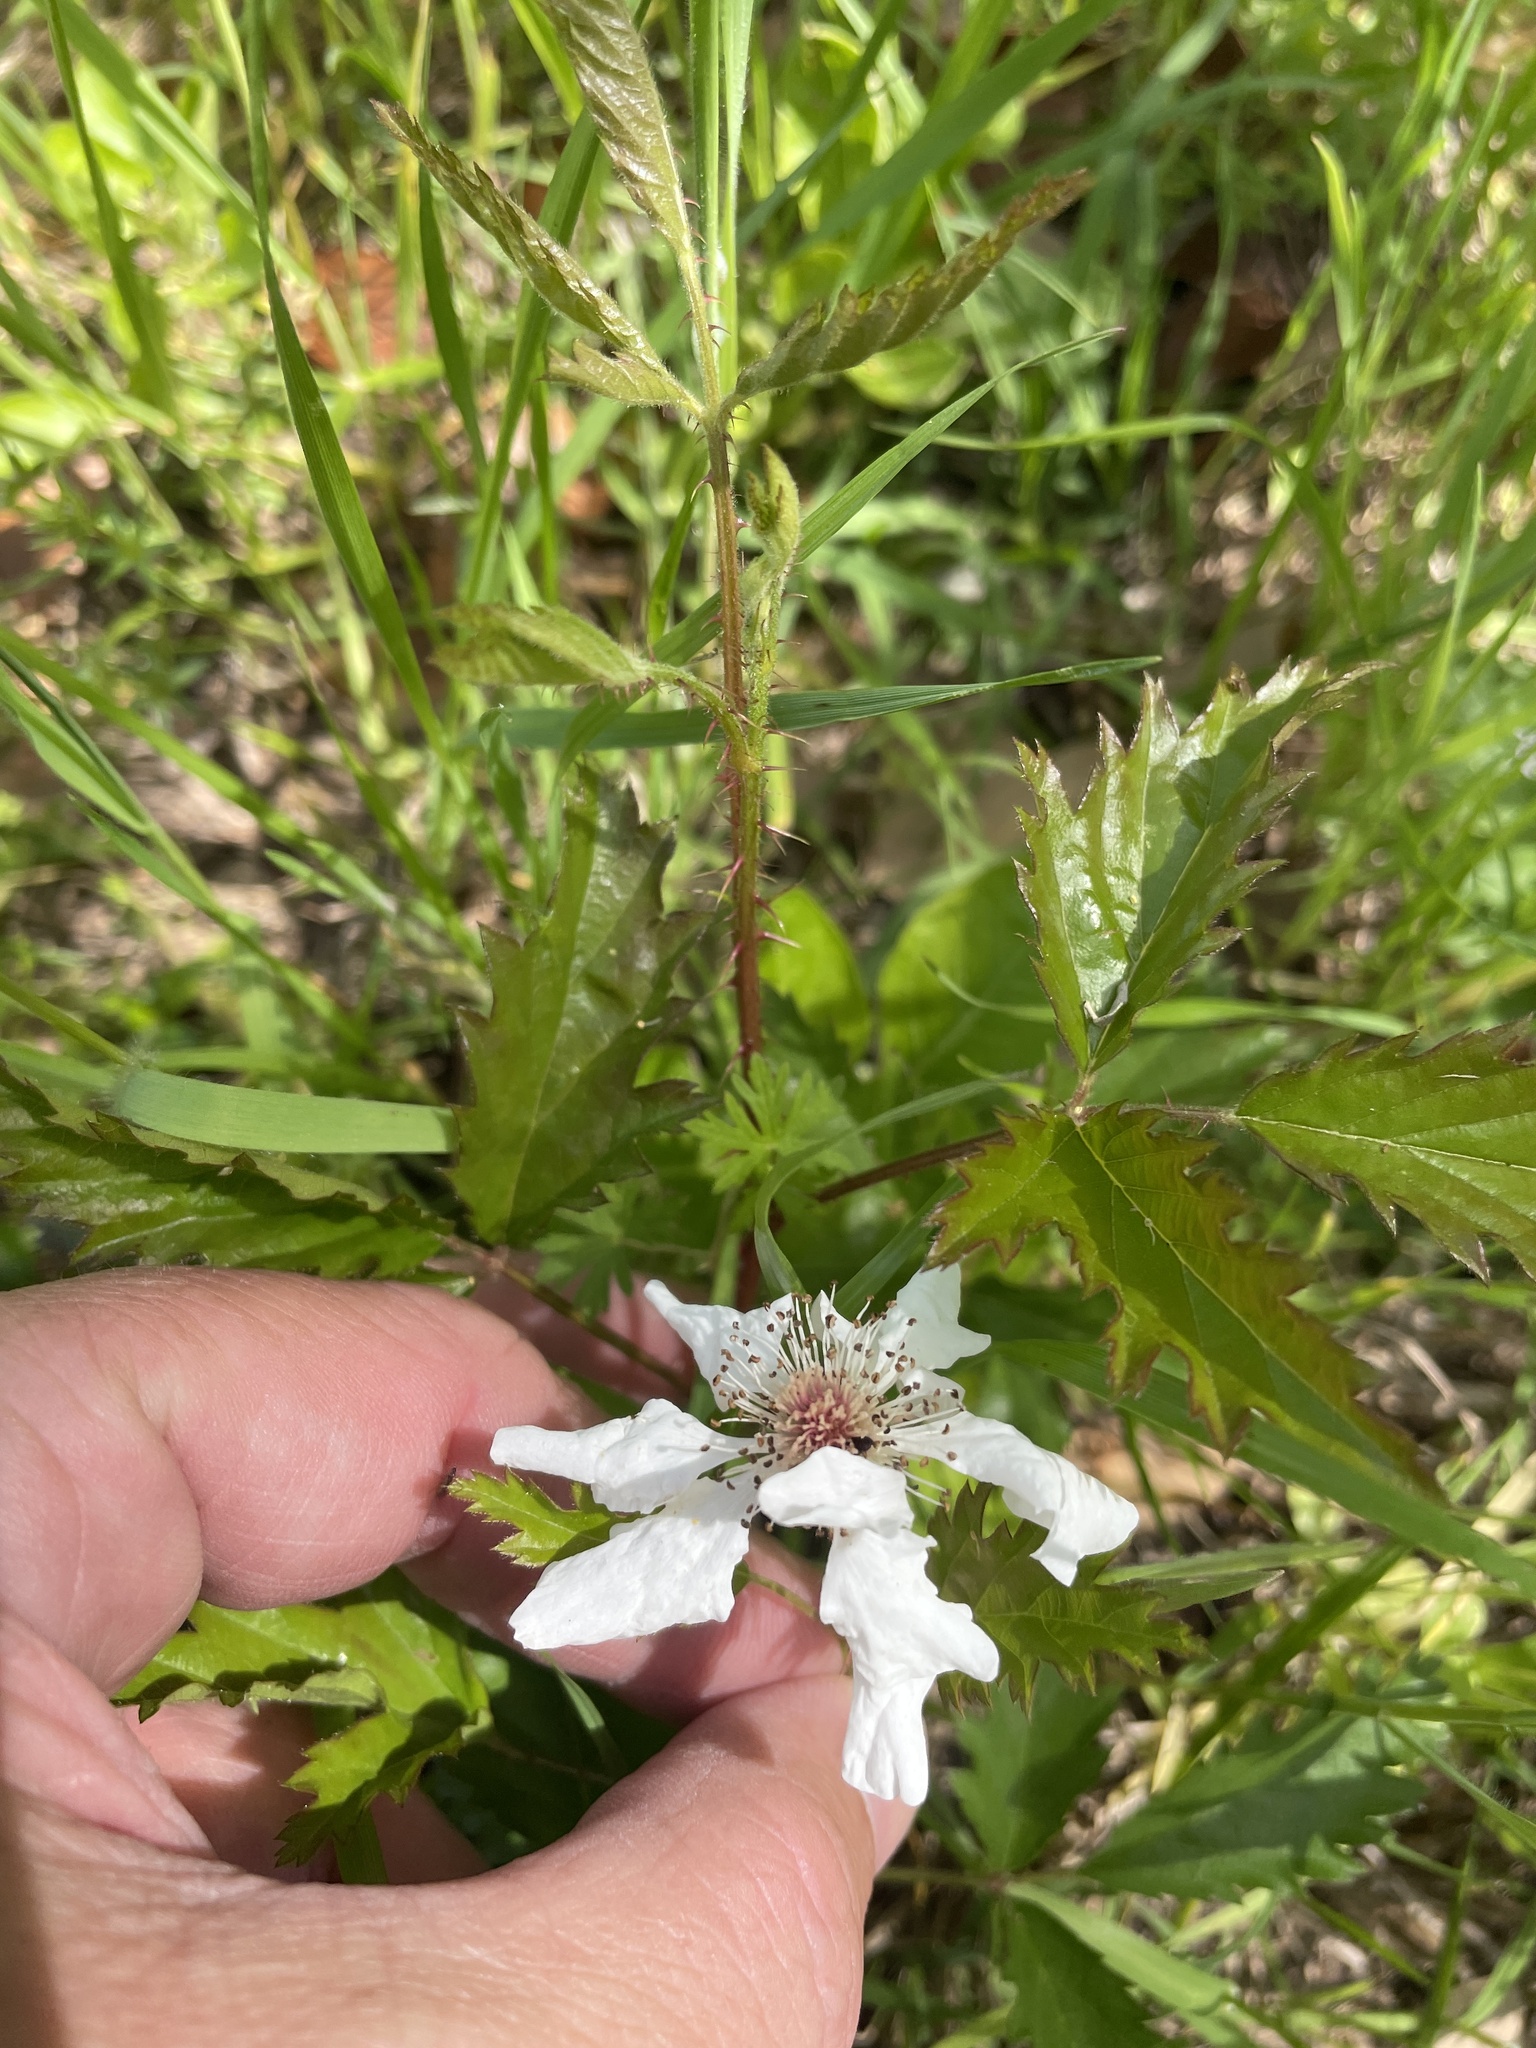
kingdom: Plantae
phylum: Tracheophyta
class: Magnoliopsida
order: Rosales
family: Rosaceae
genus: Rubus
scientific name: Rubus trivialis
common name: Southern dewberry
